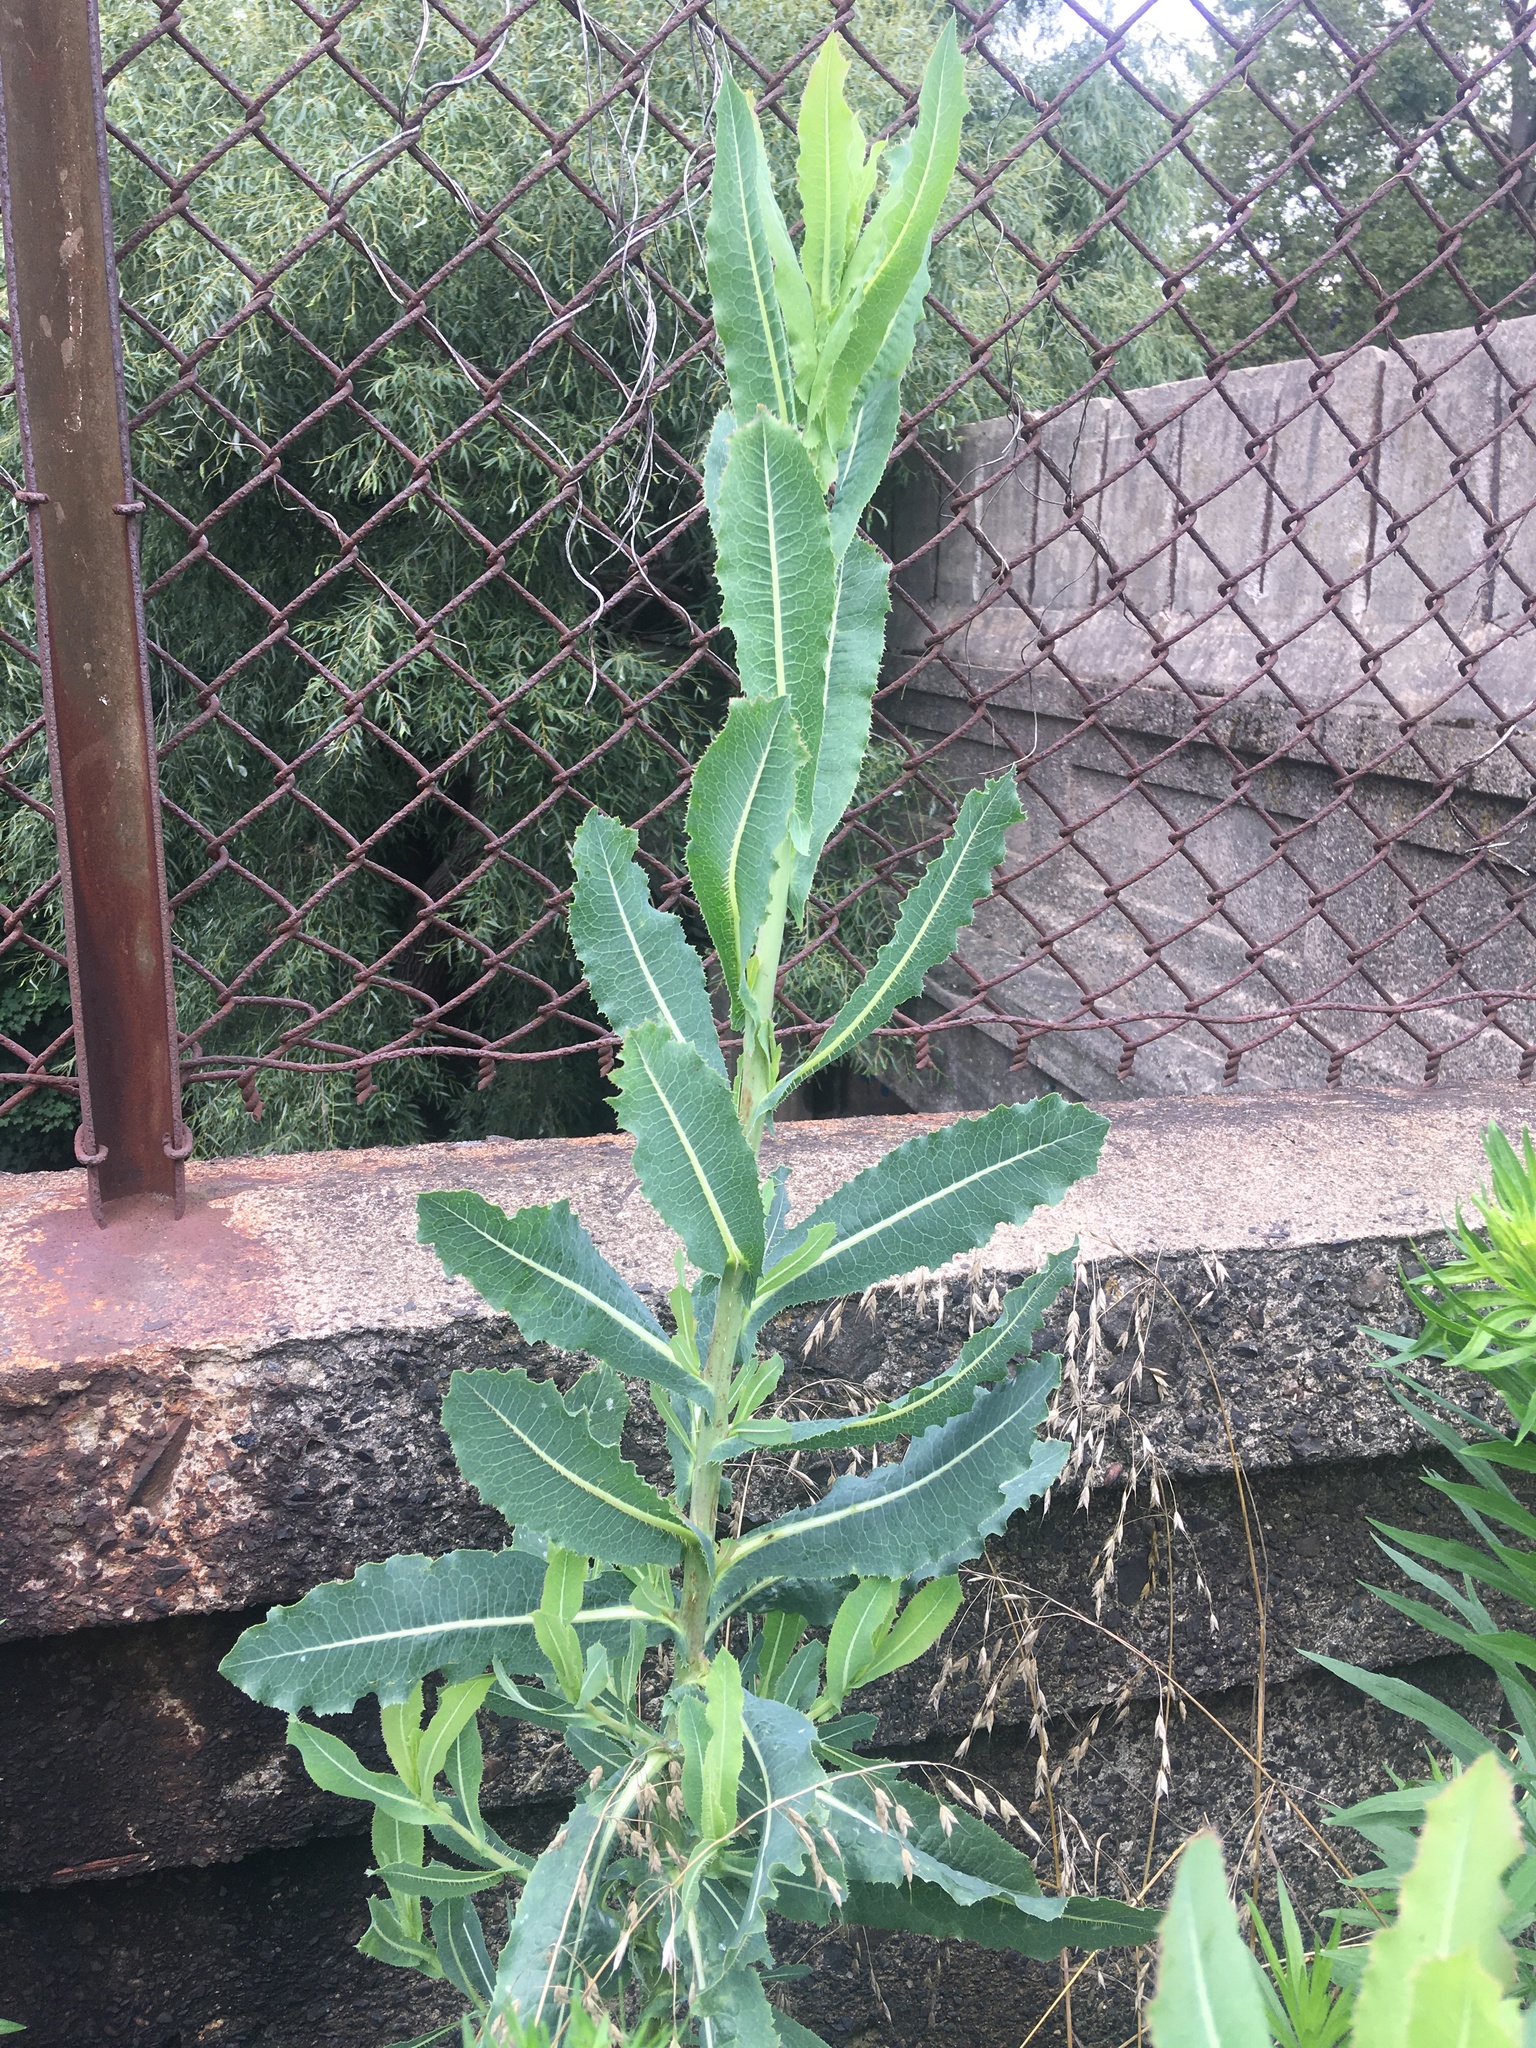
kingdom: Plantae
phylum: Tracheophyta
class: Magnoliopsida
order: Asterales
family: Asteraceae
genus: Lactuca
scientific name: Lactuca serriola
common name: Prickly lettuce
